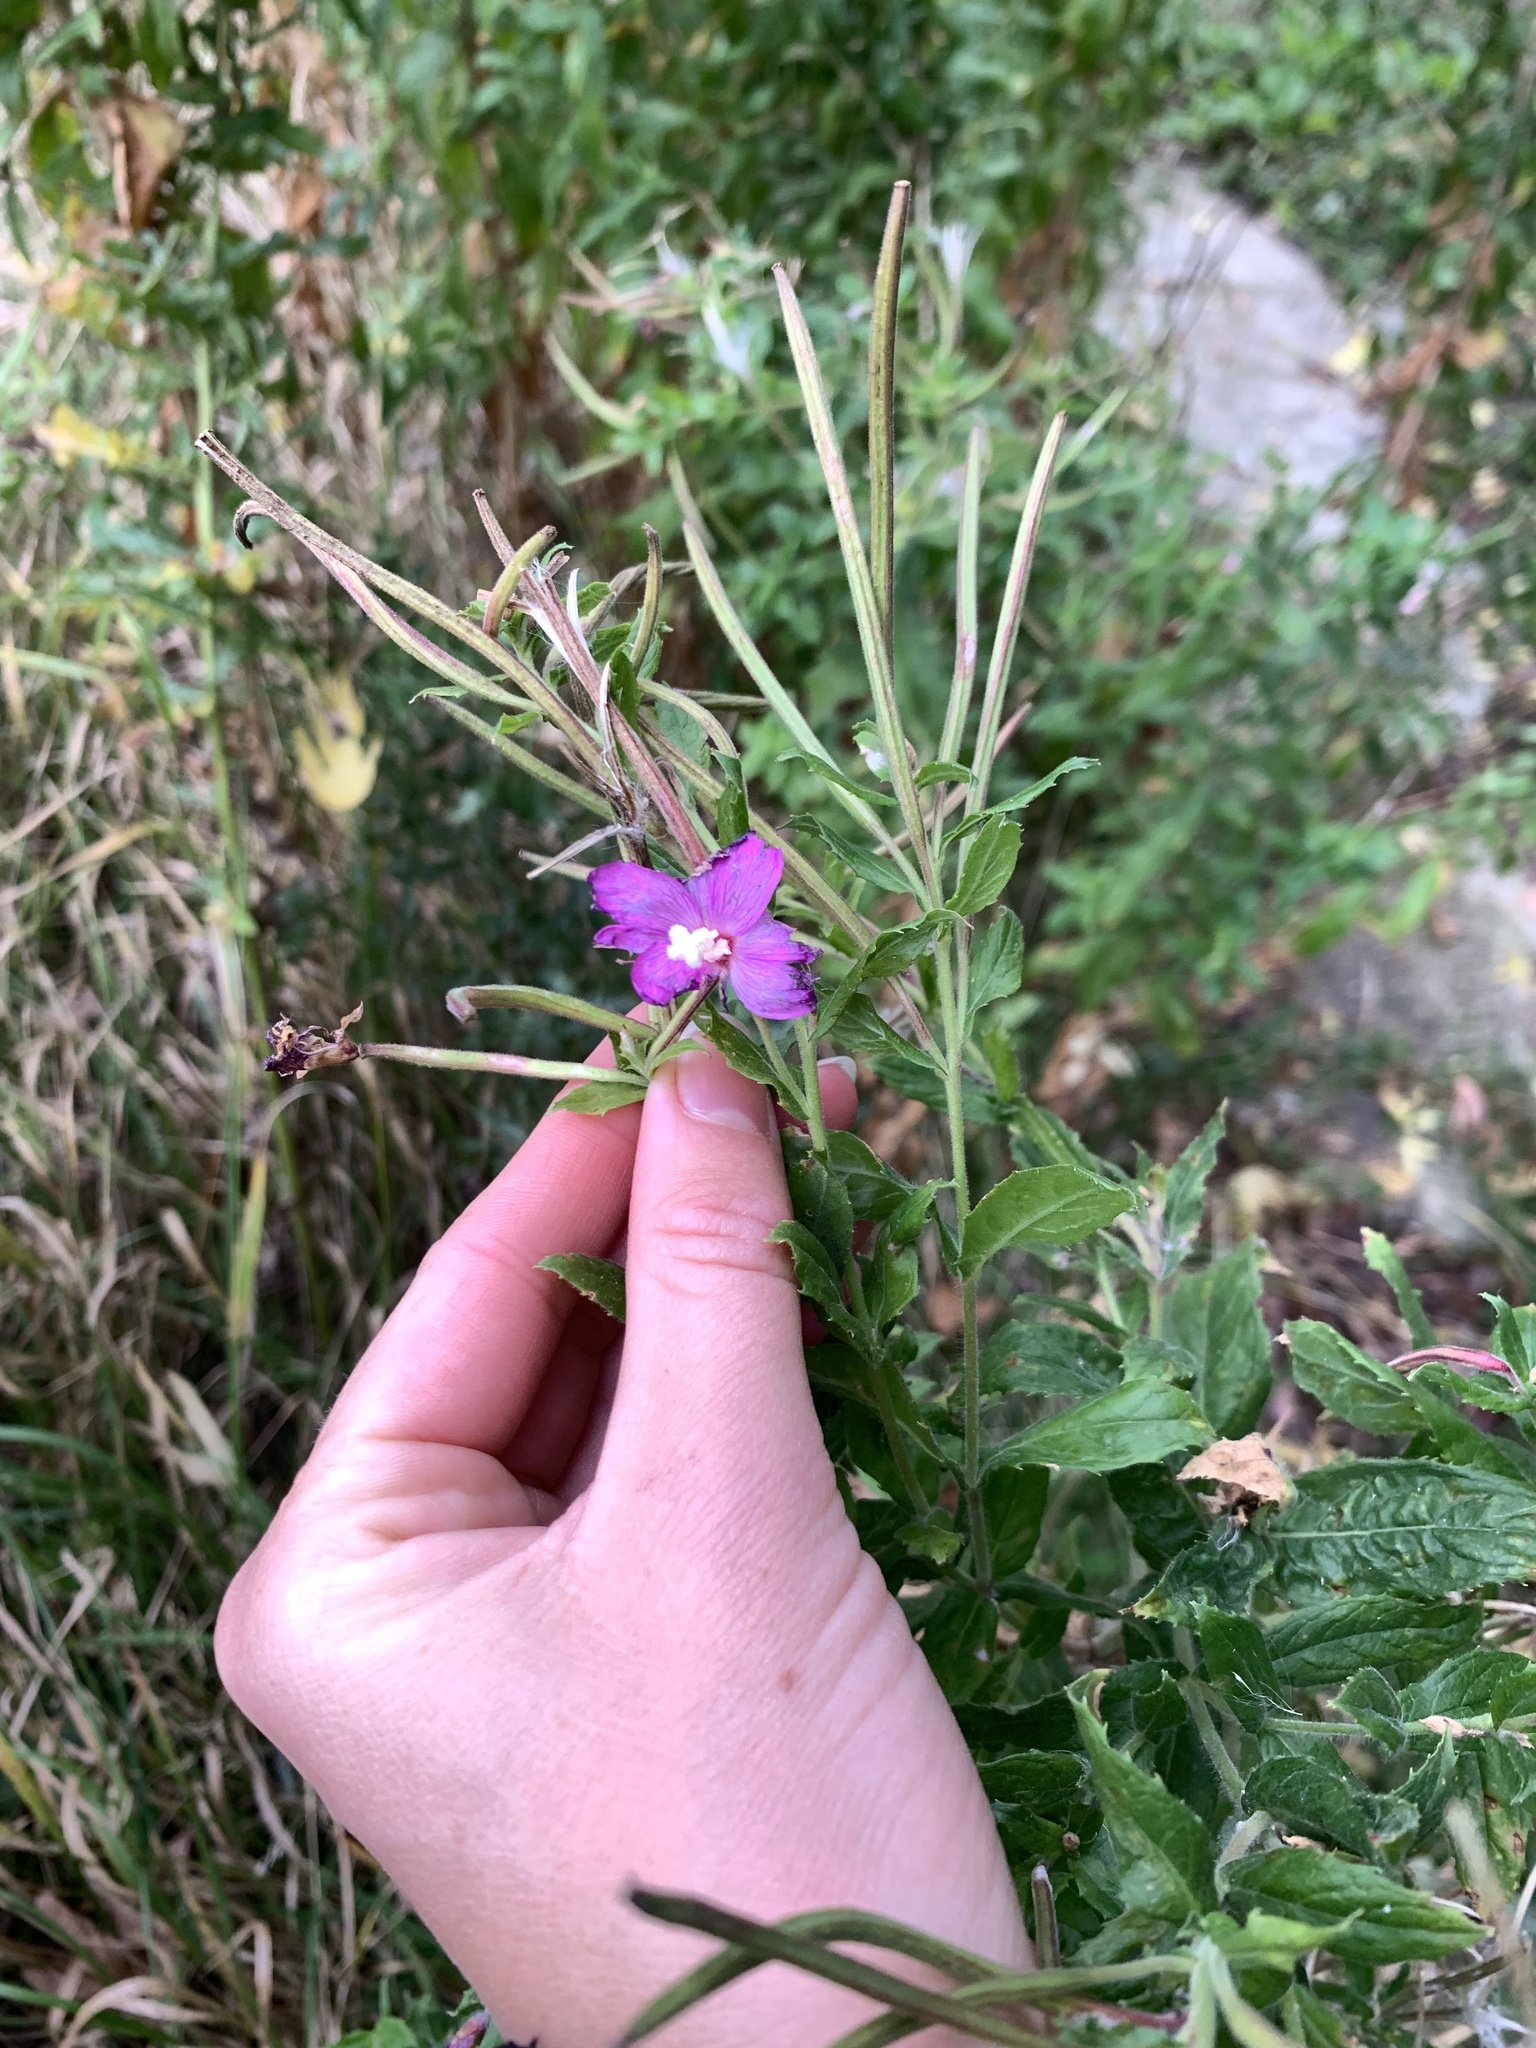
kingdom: Plantae
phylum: Tracheophyta
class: Magnoliopsida
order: Myrtales
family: Onagraceae
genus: Epilobium
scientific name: Epilobium hirsutum
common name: Great willowherb
